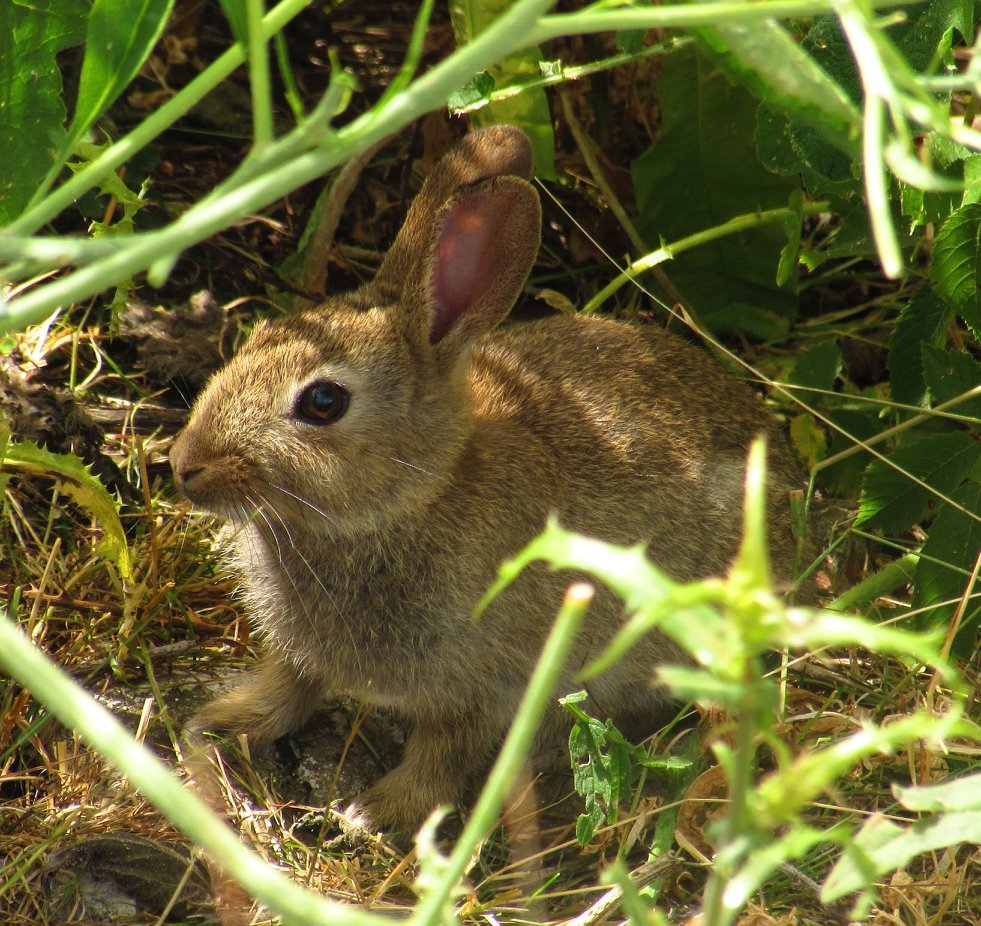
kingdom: Animalia
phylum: Chordata
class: Mammalia
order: Lagomorpha
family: Leporidae
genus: Oryctolagus
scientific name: Oryctolagus cuniculus
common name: European rabbit
